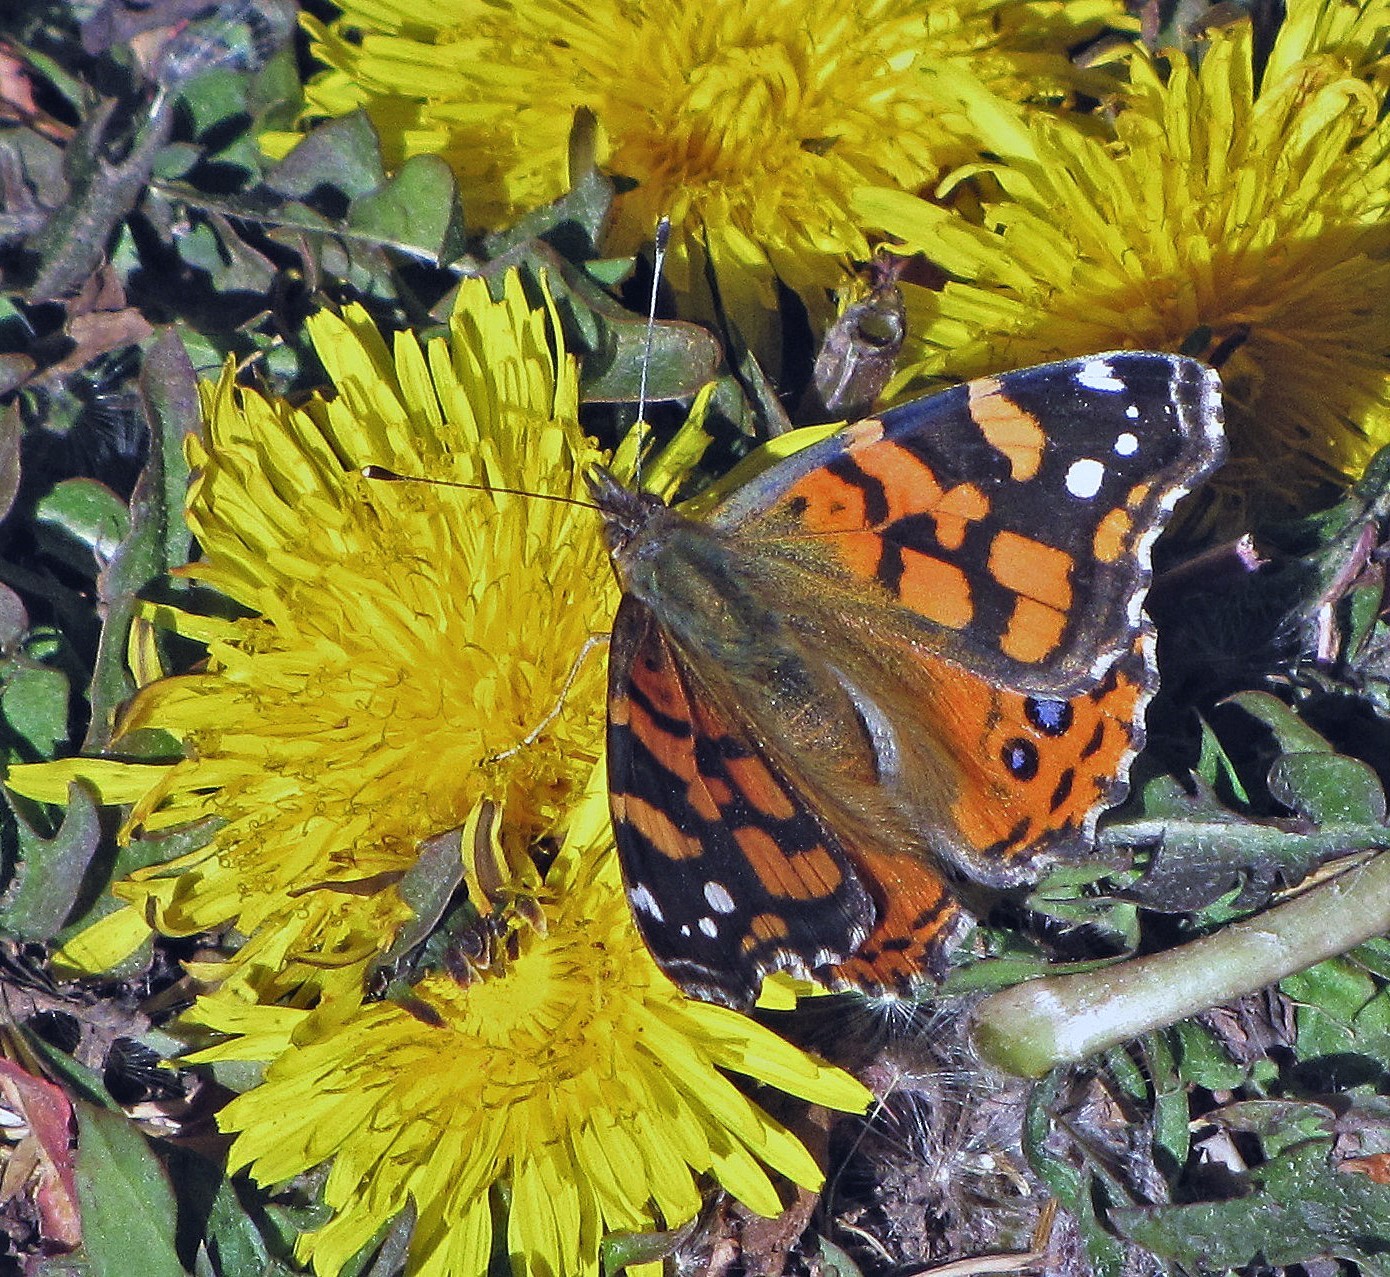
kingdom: Animalia
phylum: Arthropoda
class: Insecta
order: Lepidoptera
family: Nymphalidae
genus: Vanessa
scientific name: Vanessa carye
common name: Subtropical lady
